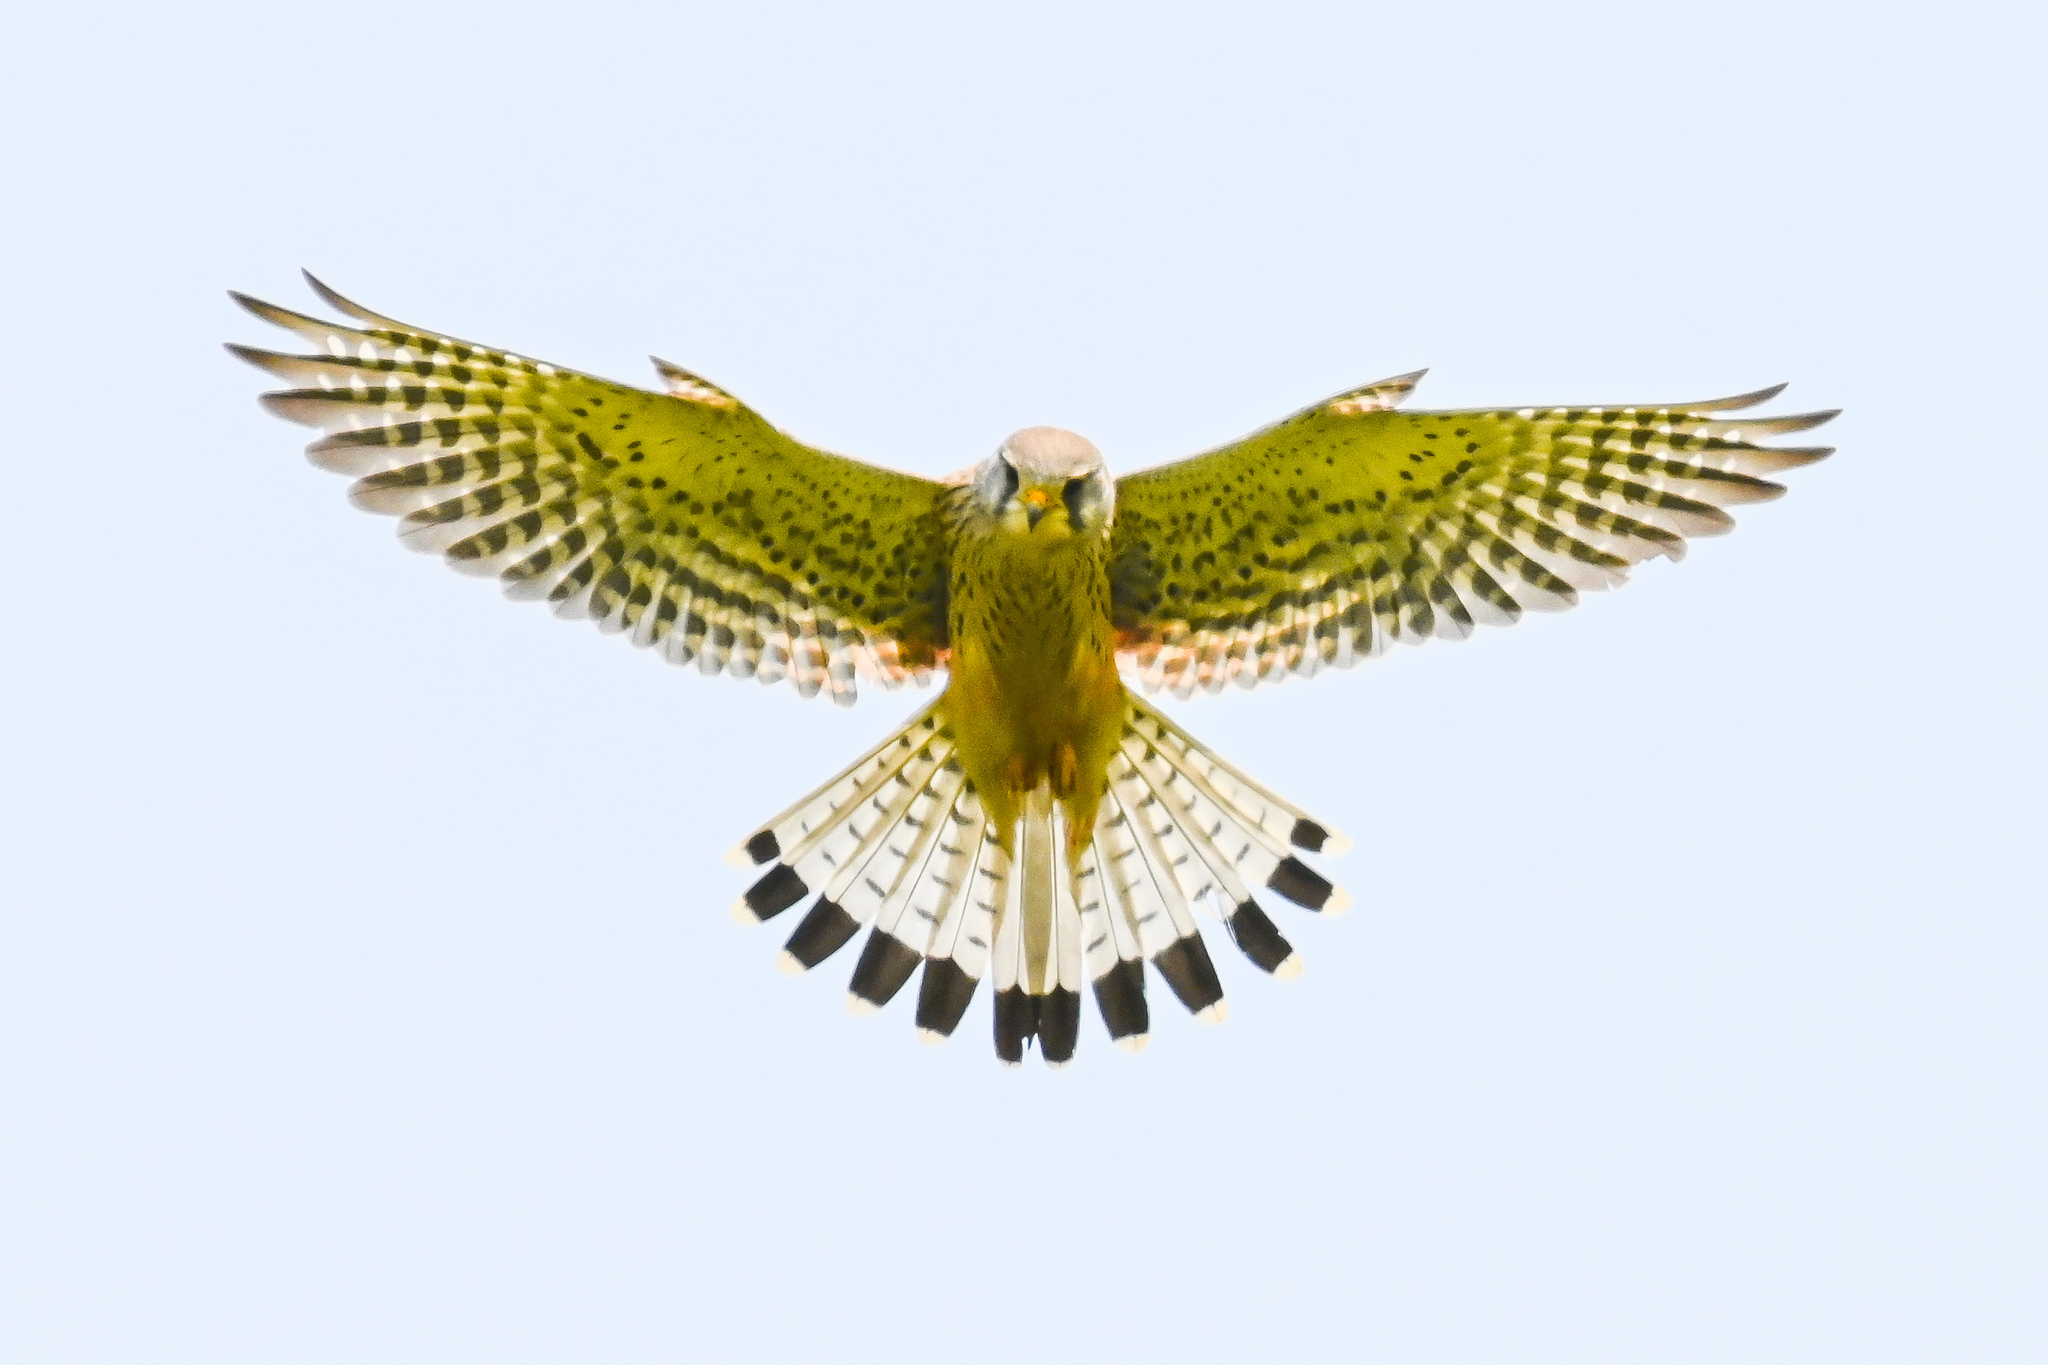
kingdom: Animalia
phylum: Chordata
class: Aves
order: Falconiformes
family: Falconidae
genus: Falco
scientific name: Falco tinnunculus
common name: Common kestrel
